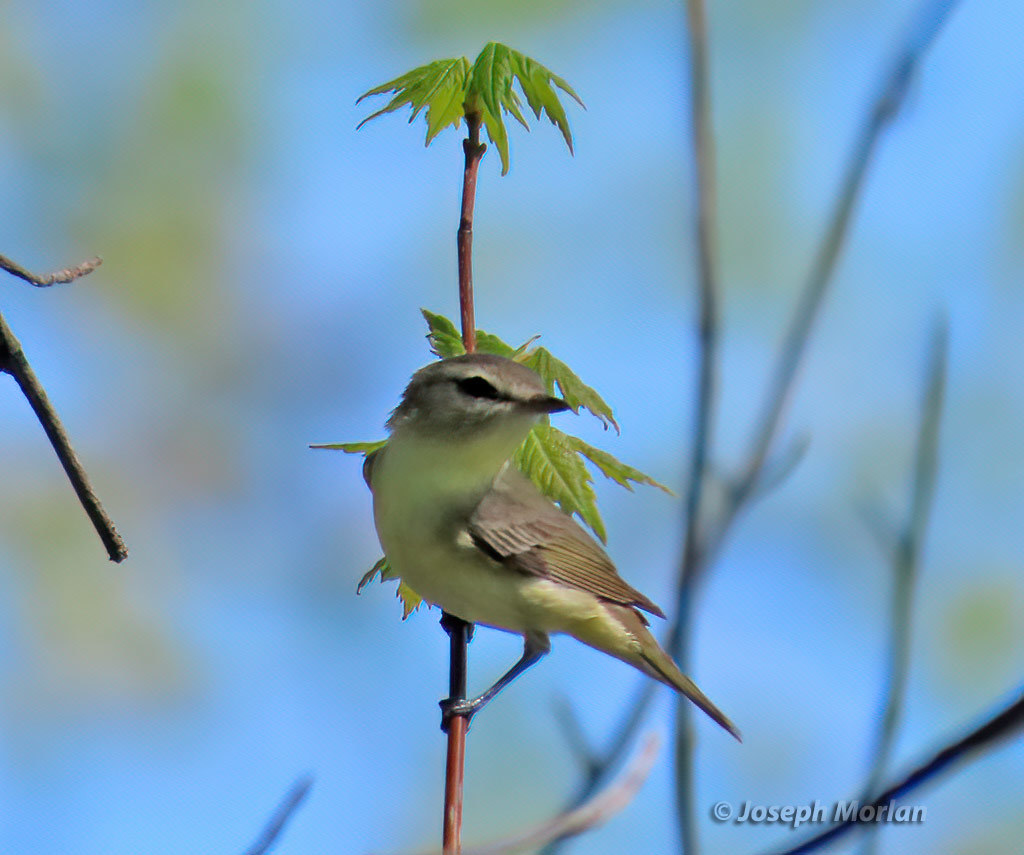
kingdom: Animalia
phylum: Chordata
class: Aves
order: Passeriformes
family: Vireonidae
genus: Vireo
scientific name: Vireo philadelphicus
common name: Philadelphia vireo
